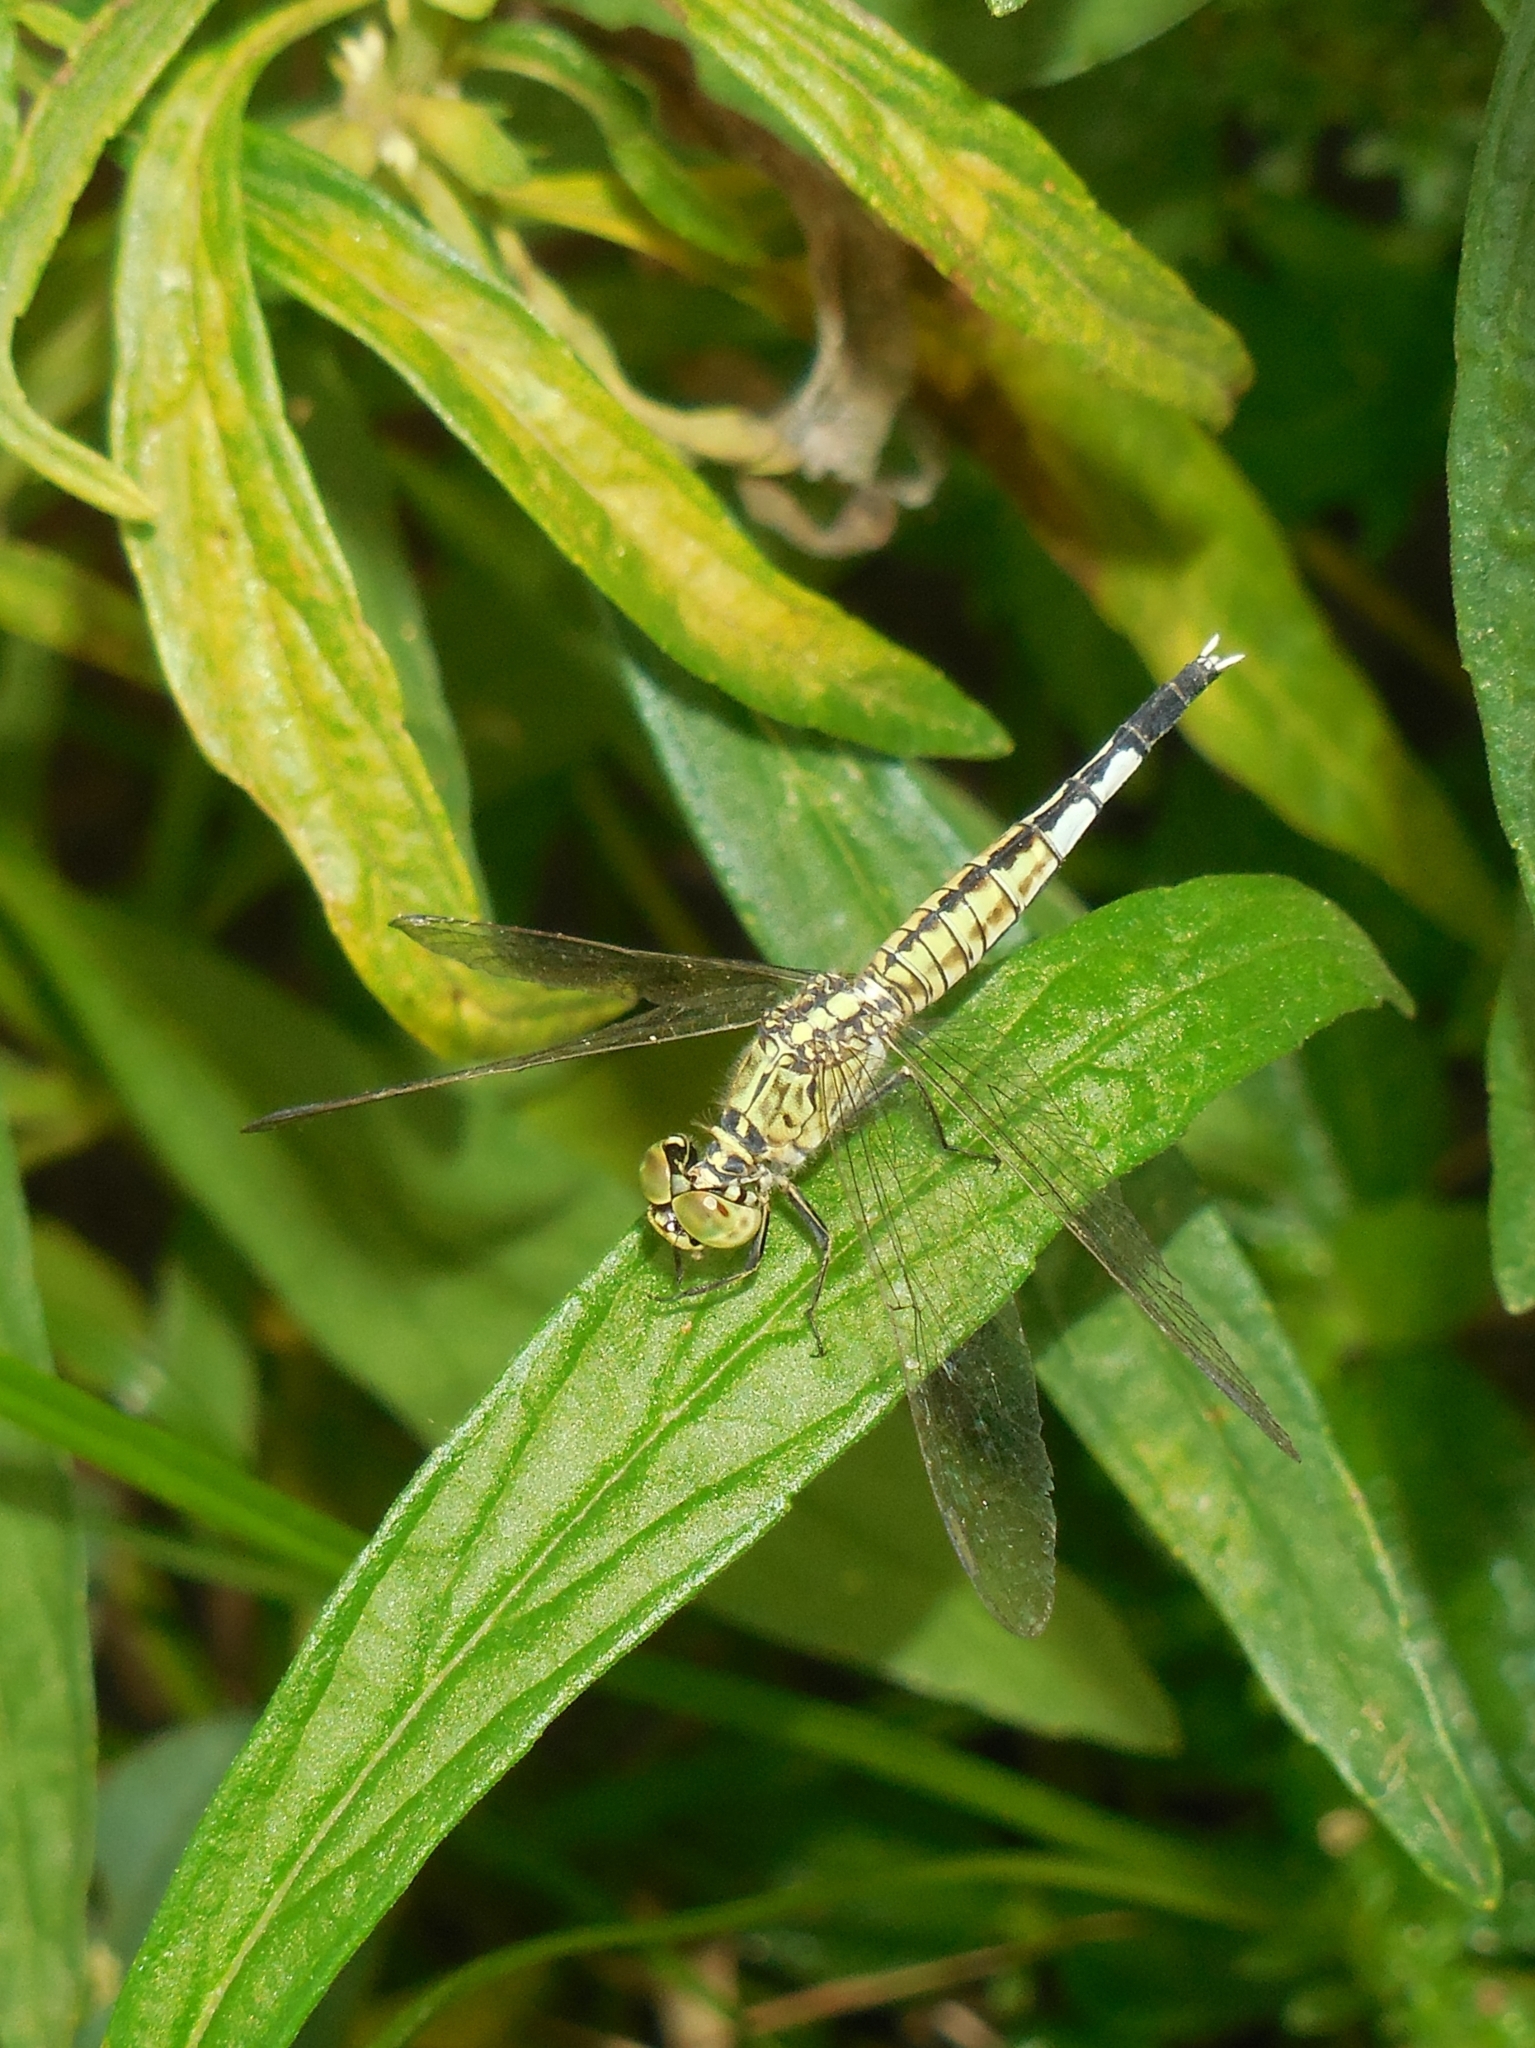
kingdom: Animalia
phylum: Arthropoda
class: Insecta
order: Odonata
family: Libellulidae
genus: Acisoma
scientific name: Acisoma panorpoides
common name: Asian pintail
